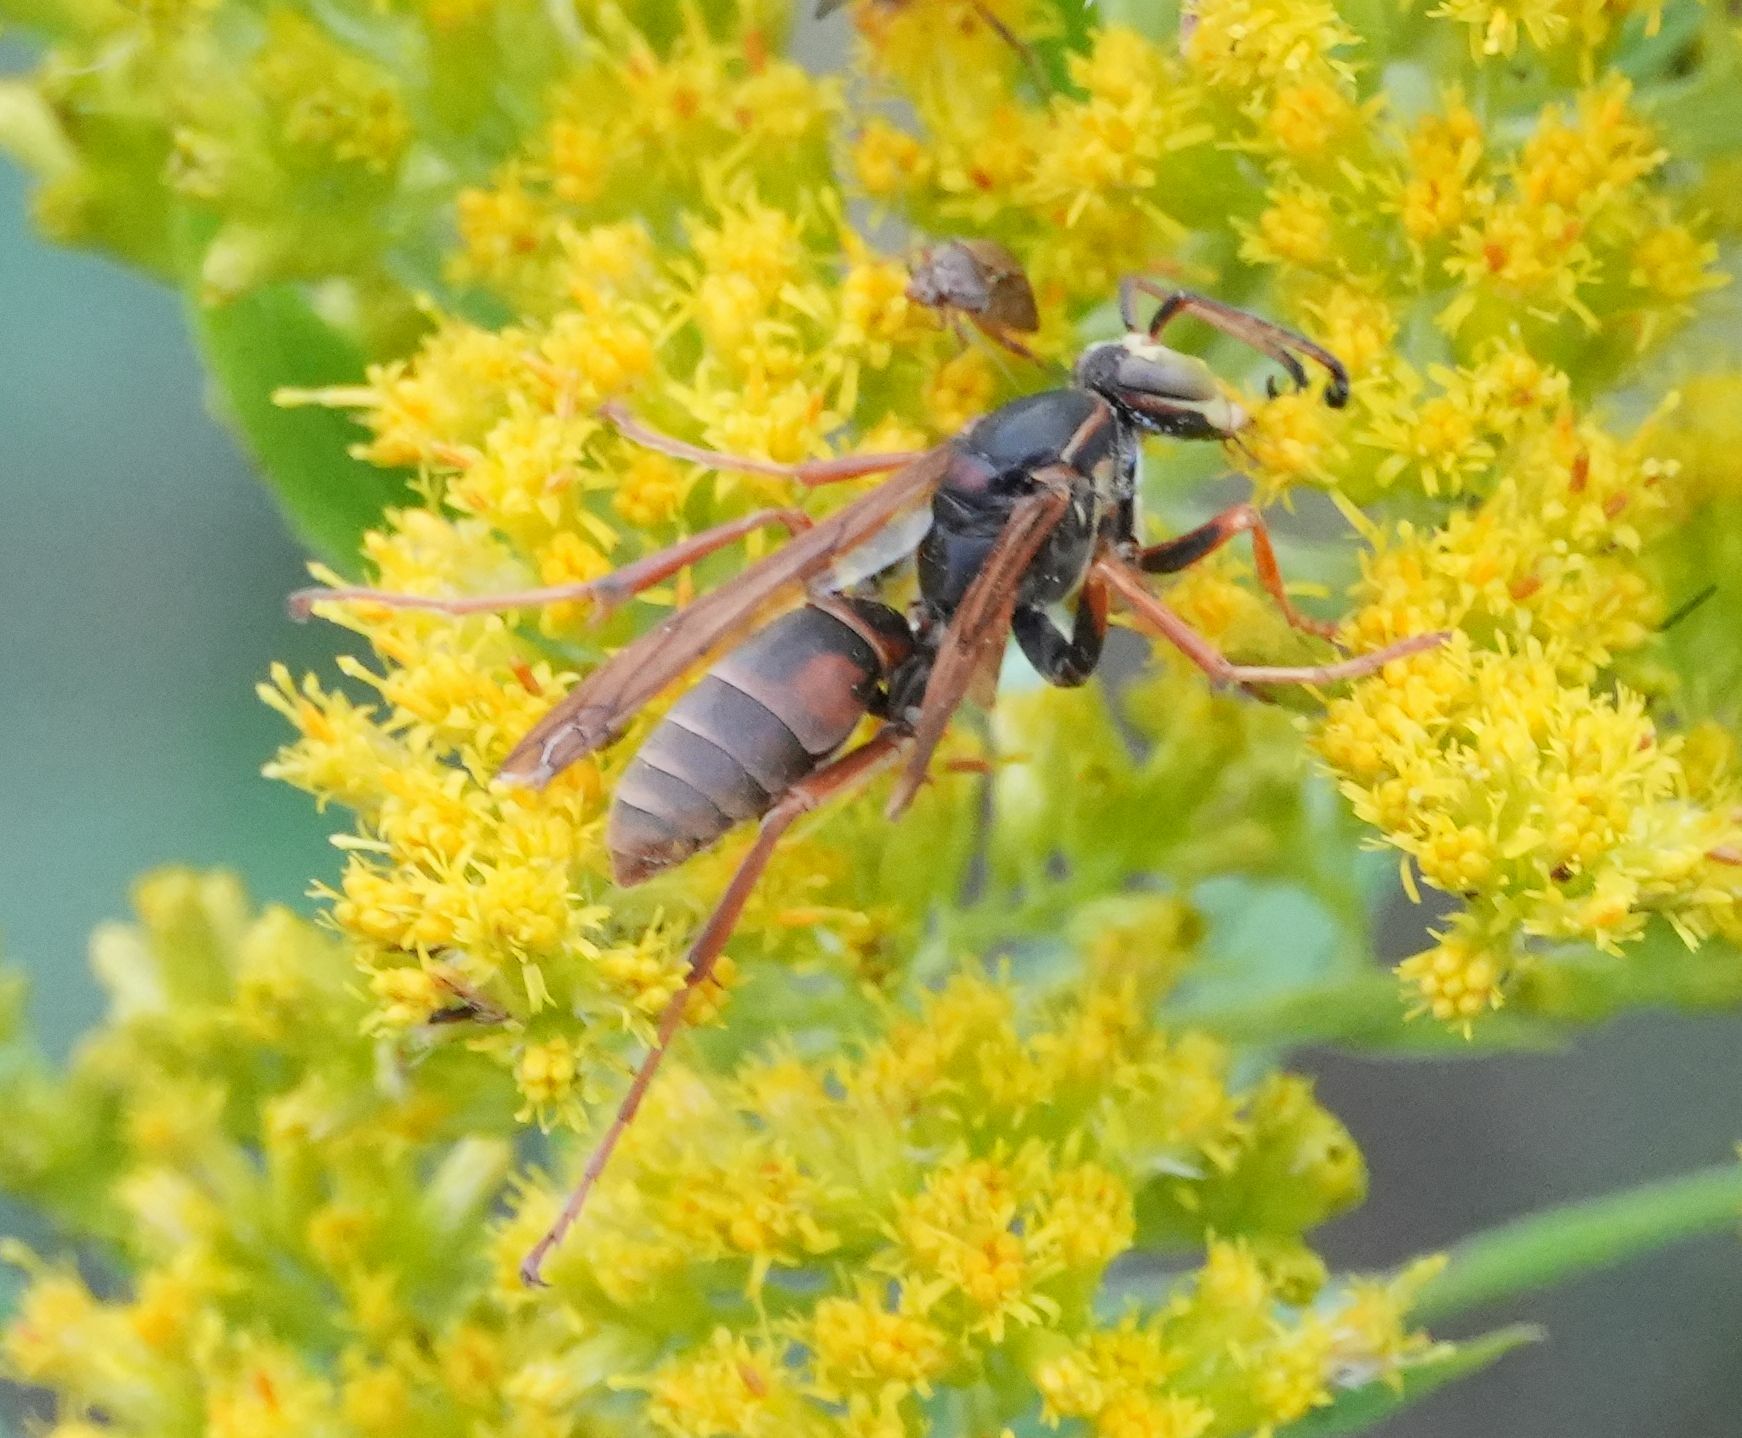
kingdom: Animalia
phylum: Arthropoda
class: Insecta
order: Hymenoptera
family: Eumenidae
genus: Polistes
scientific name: Polistes fuscatus
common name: Dark paper wasp
